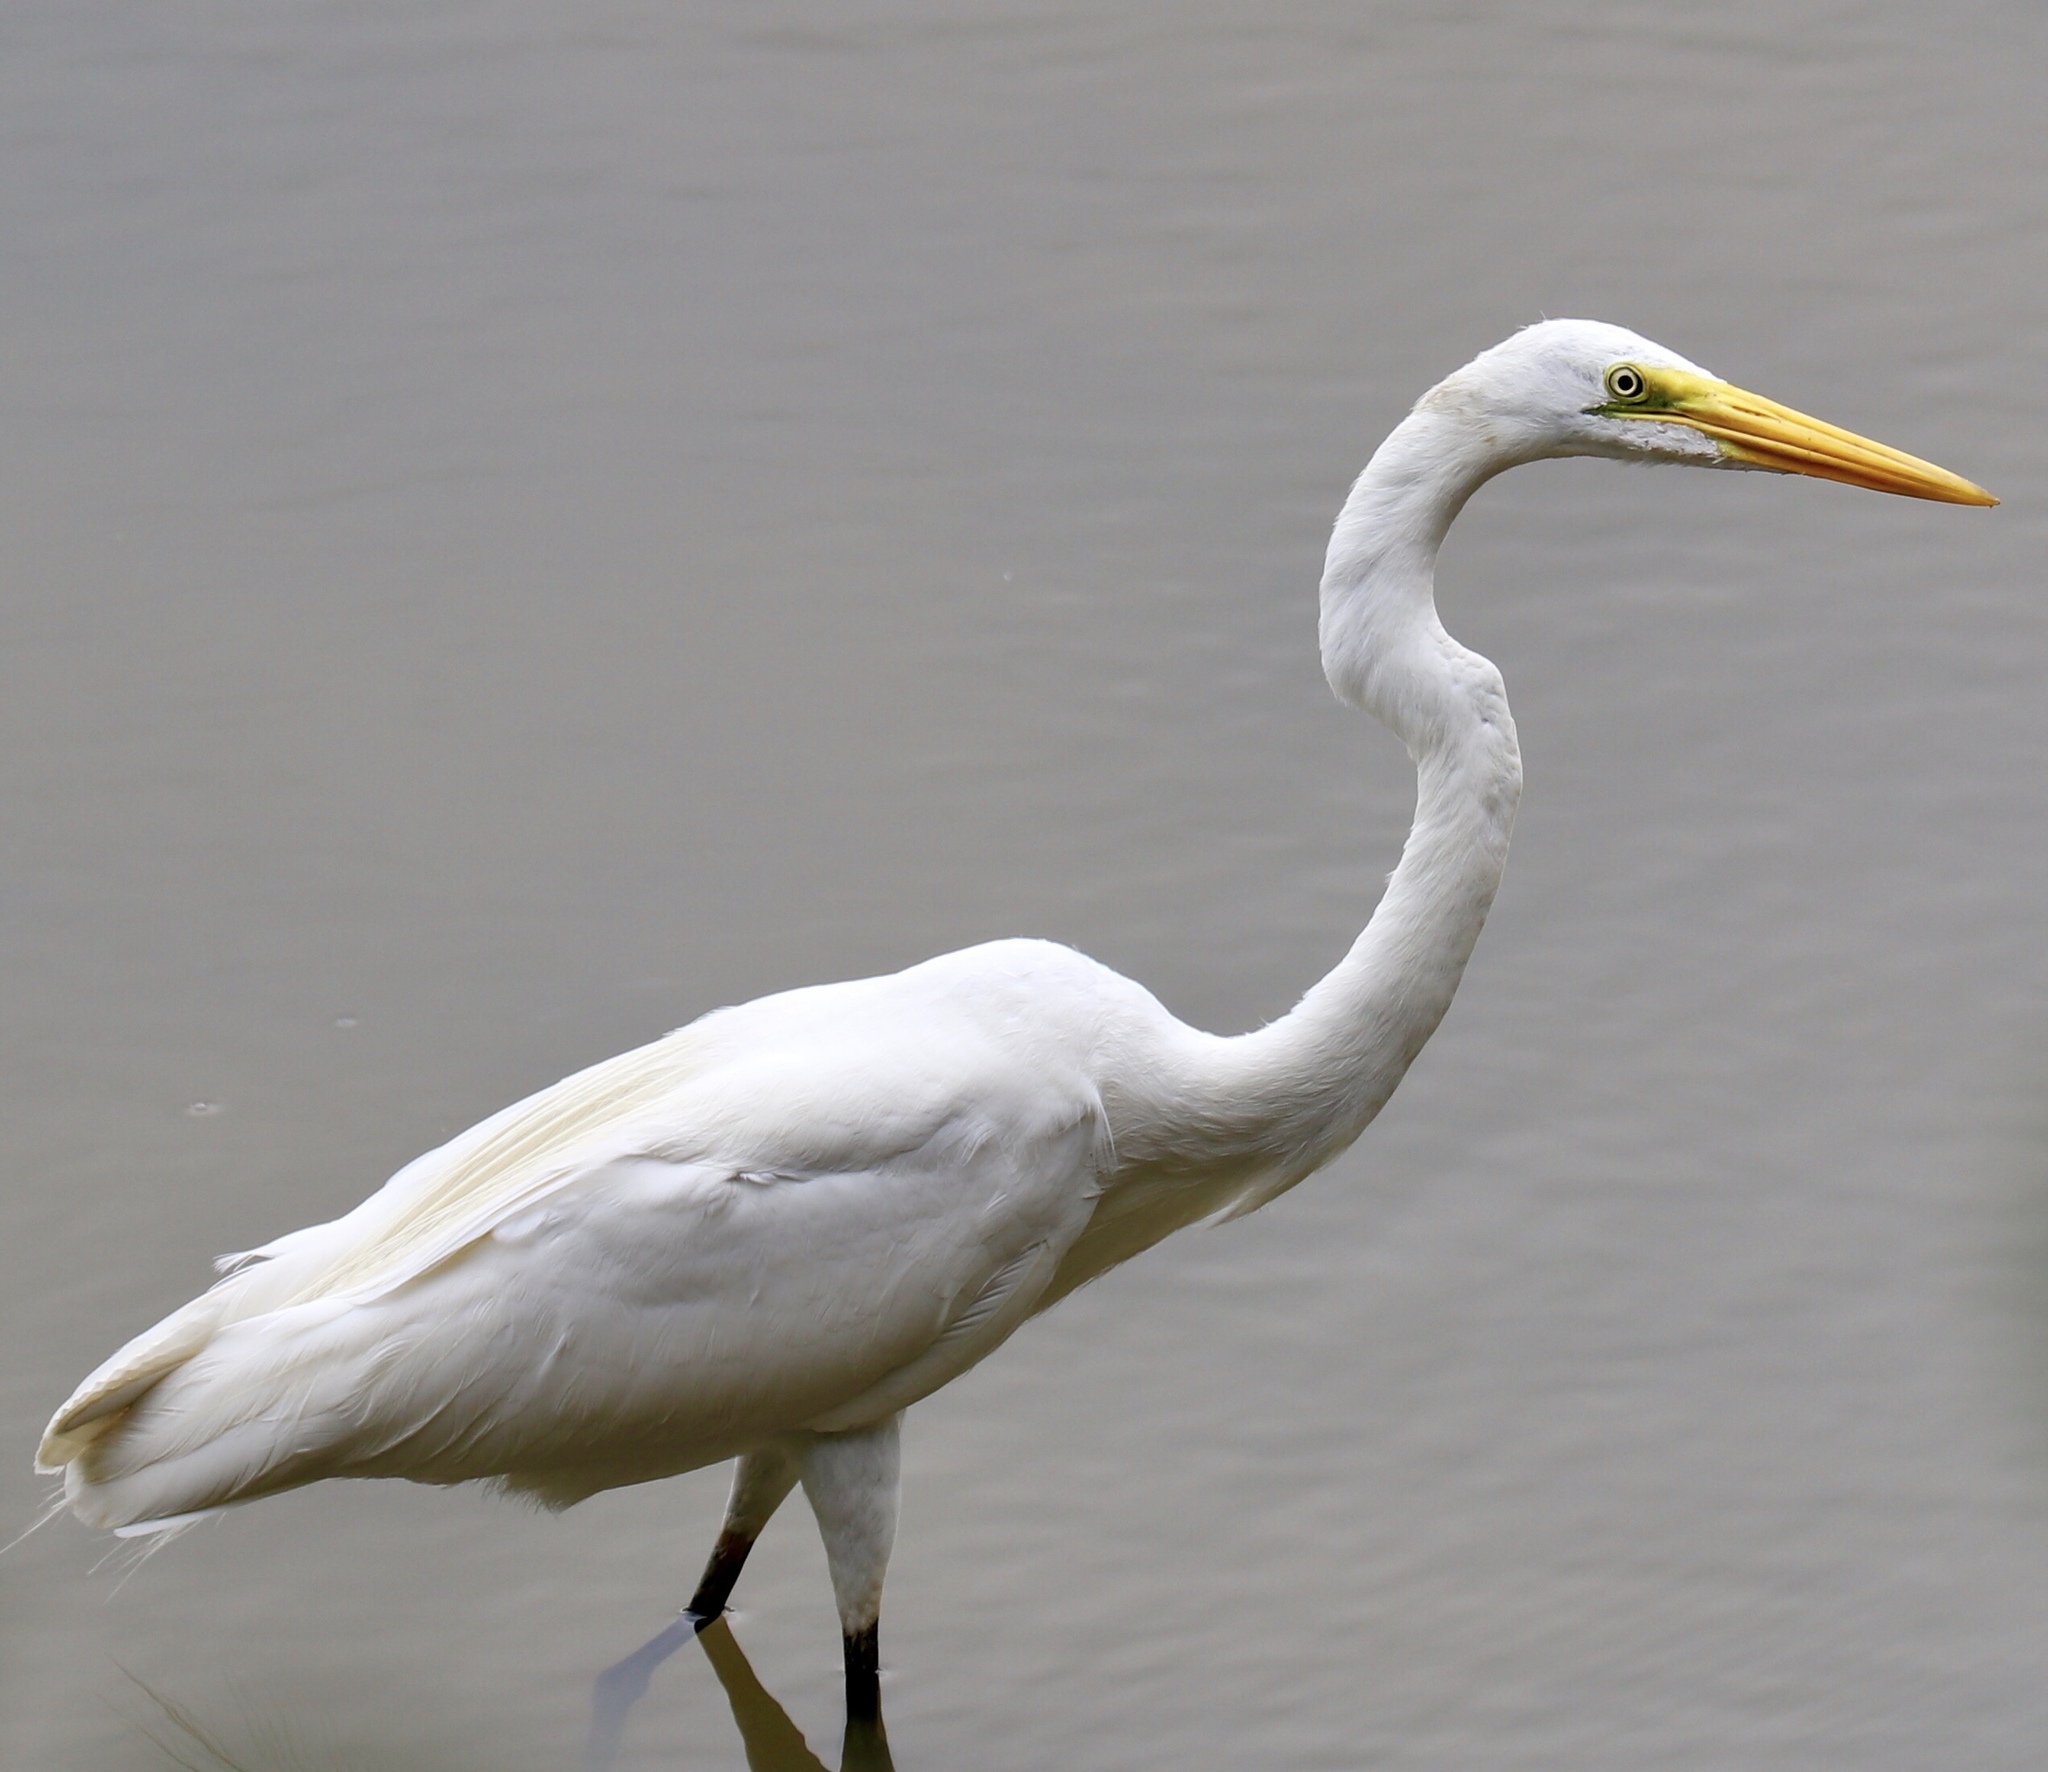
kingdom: Animalia
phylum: Chordata
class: Aves
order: Pelecaniformes
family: Ardeidae
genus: Ardea
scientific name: Ardea alba
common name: Great egret
